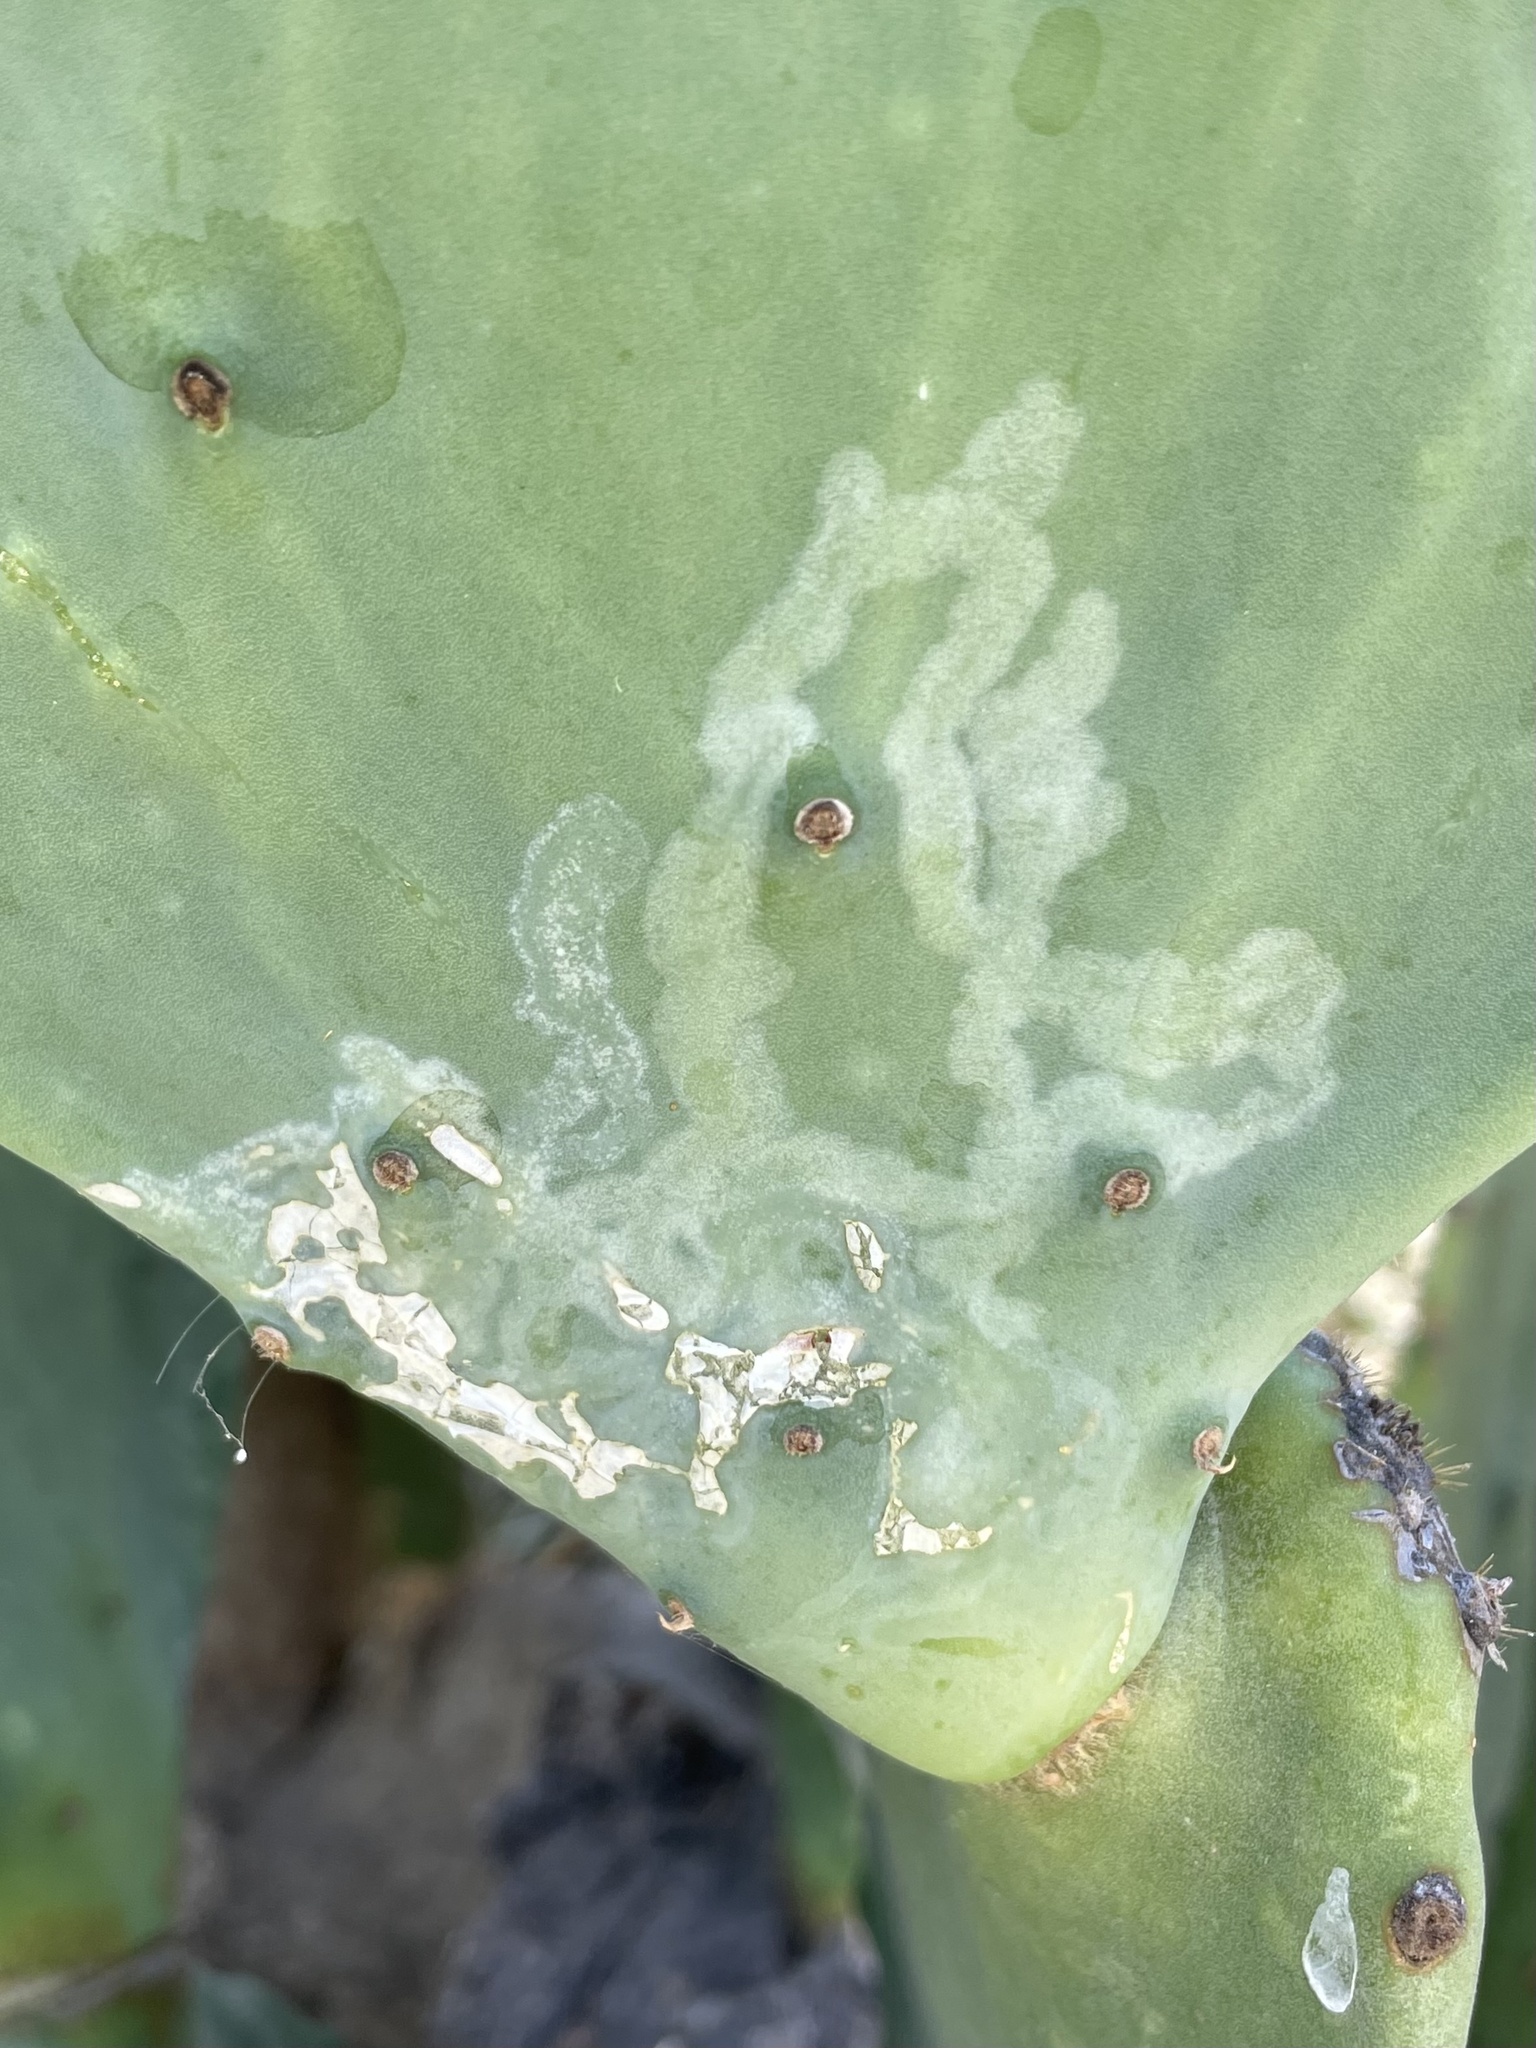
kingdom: Animalia
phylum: Arthropoda
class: Insecta
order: Lepidoptera
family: Gracillariidae
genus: Marmara
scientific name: Marmara opuntiella
